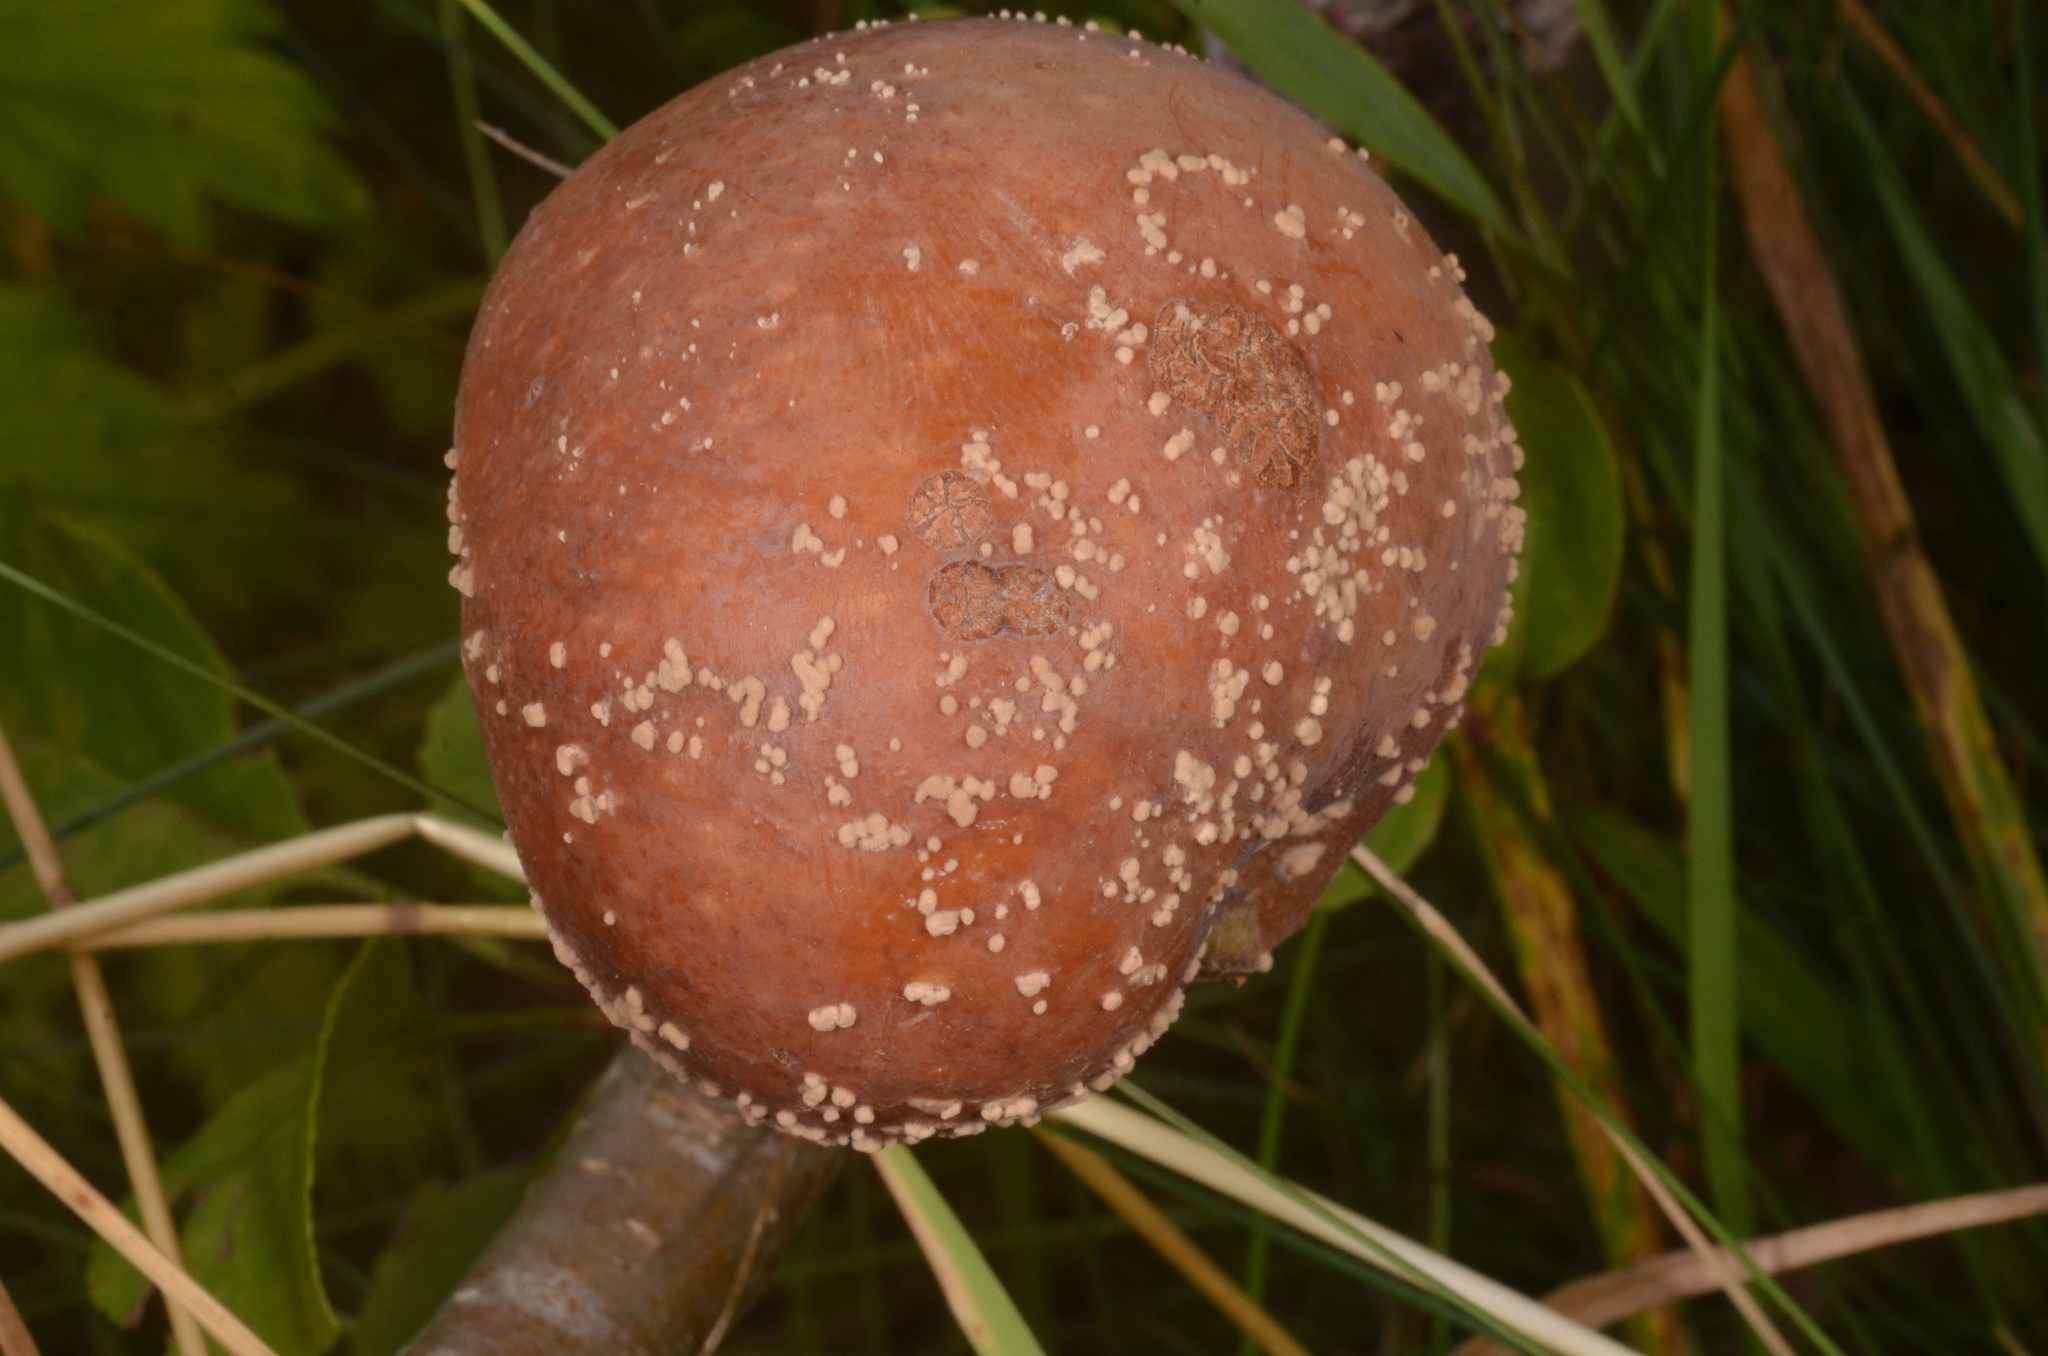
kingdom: Fungi
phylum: Ascomycota
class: Leotiomycetes
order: Helotiales
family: Sclerotiniaceae
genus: Monilinia
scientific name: Monilinia fructigena
